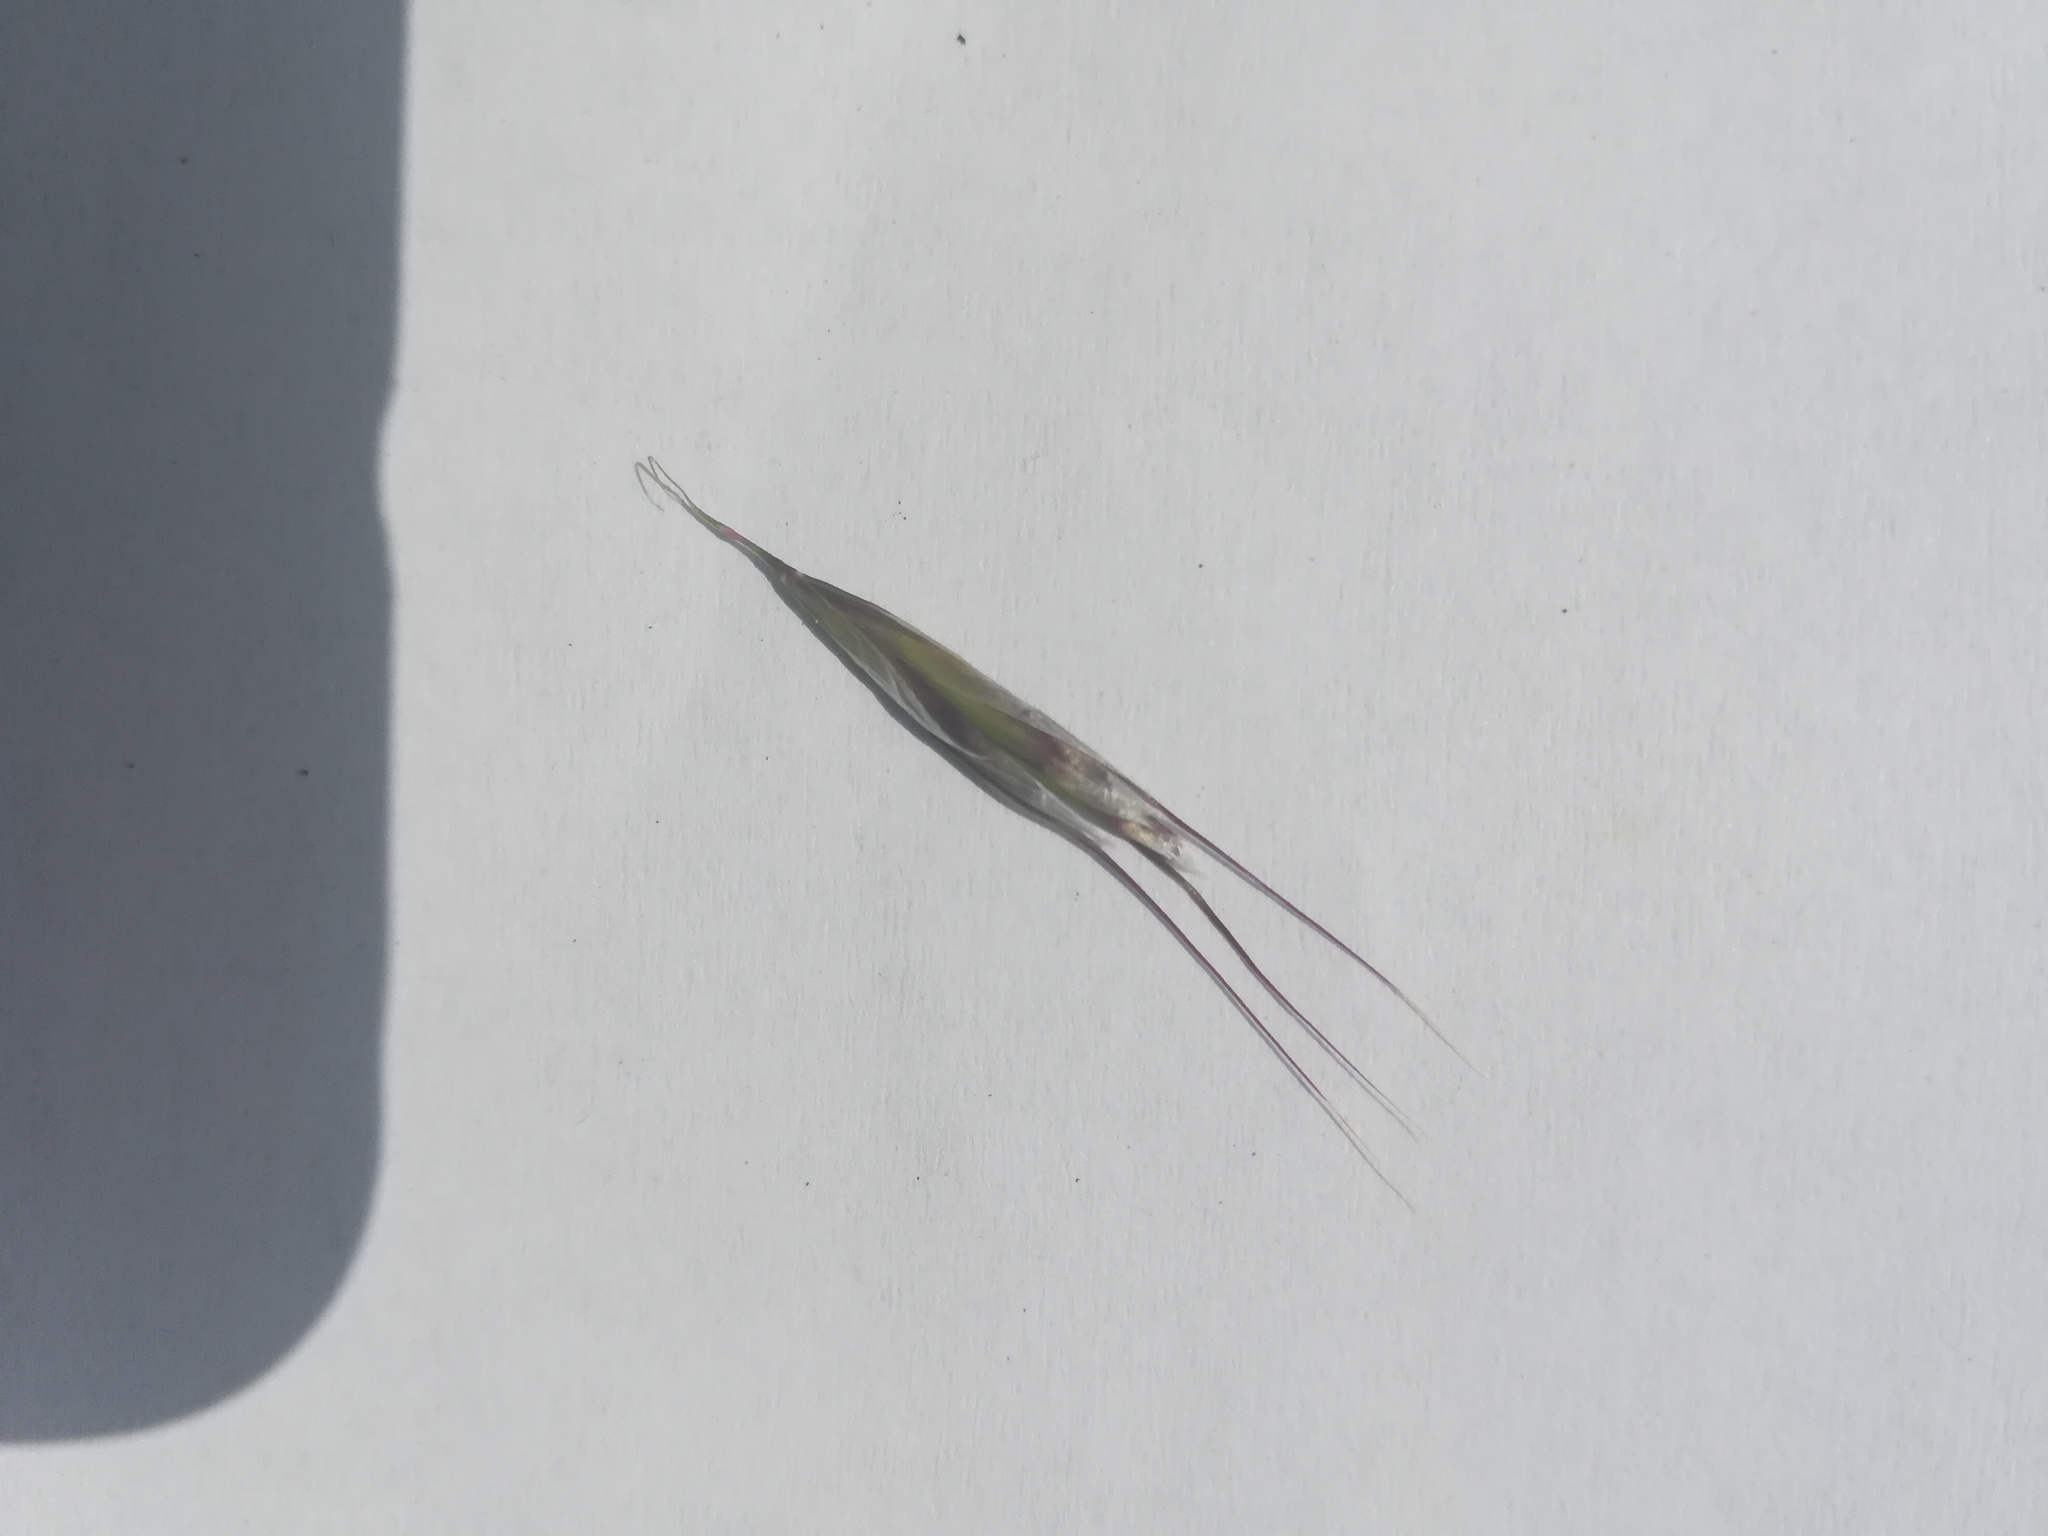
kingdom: Plantae
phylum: Tracheophyta
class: Liliopsida
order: Poales
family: Poaceae
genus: Avenula
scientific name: Avenula pubescens
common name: Downy alpine oatgrass
